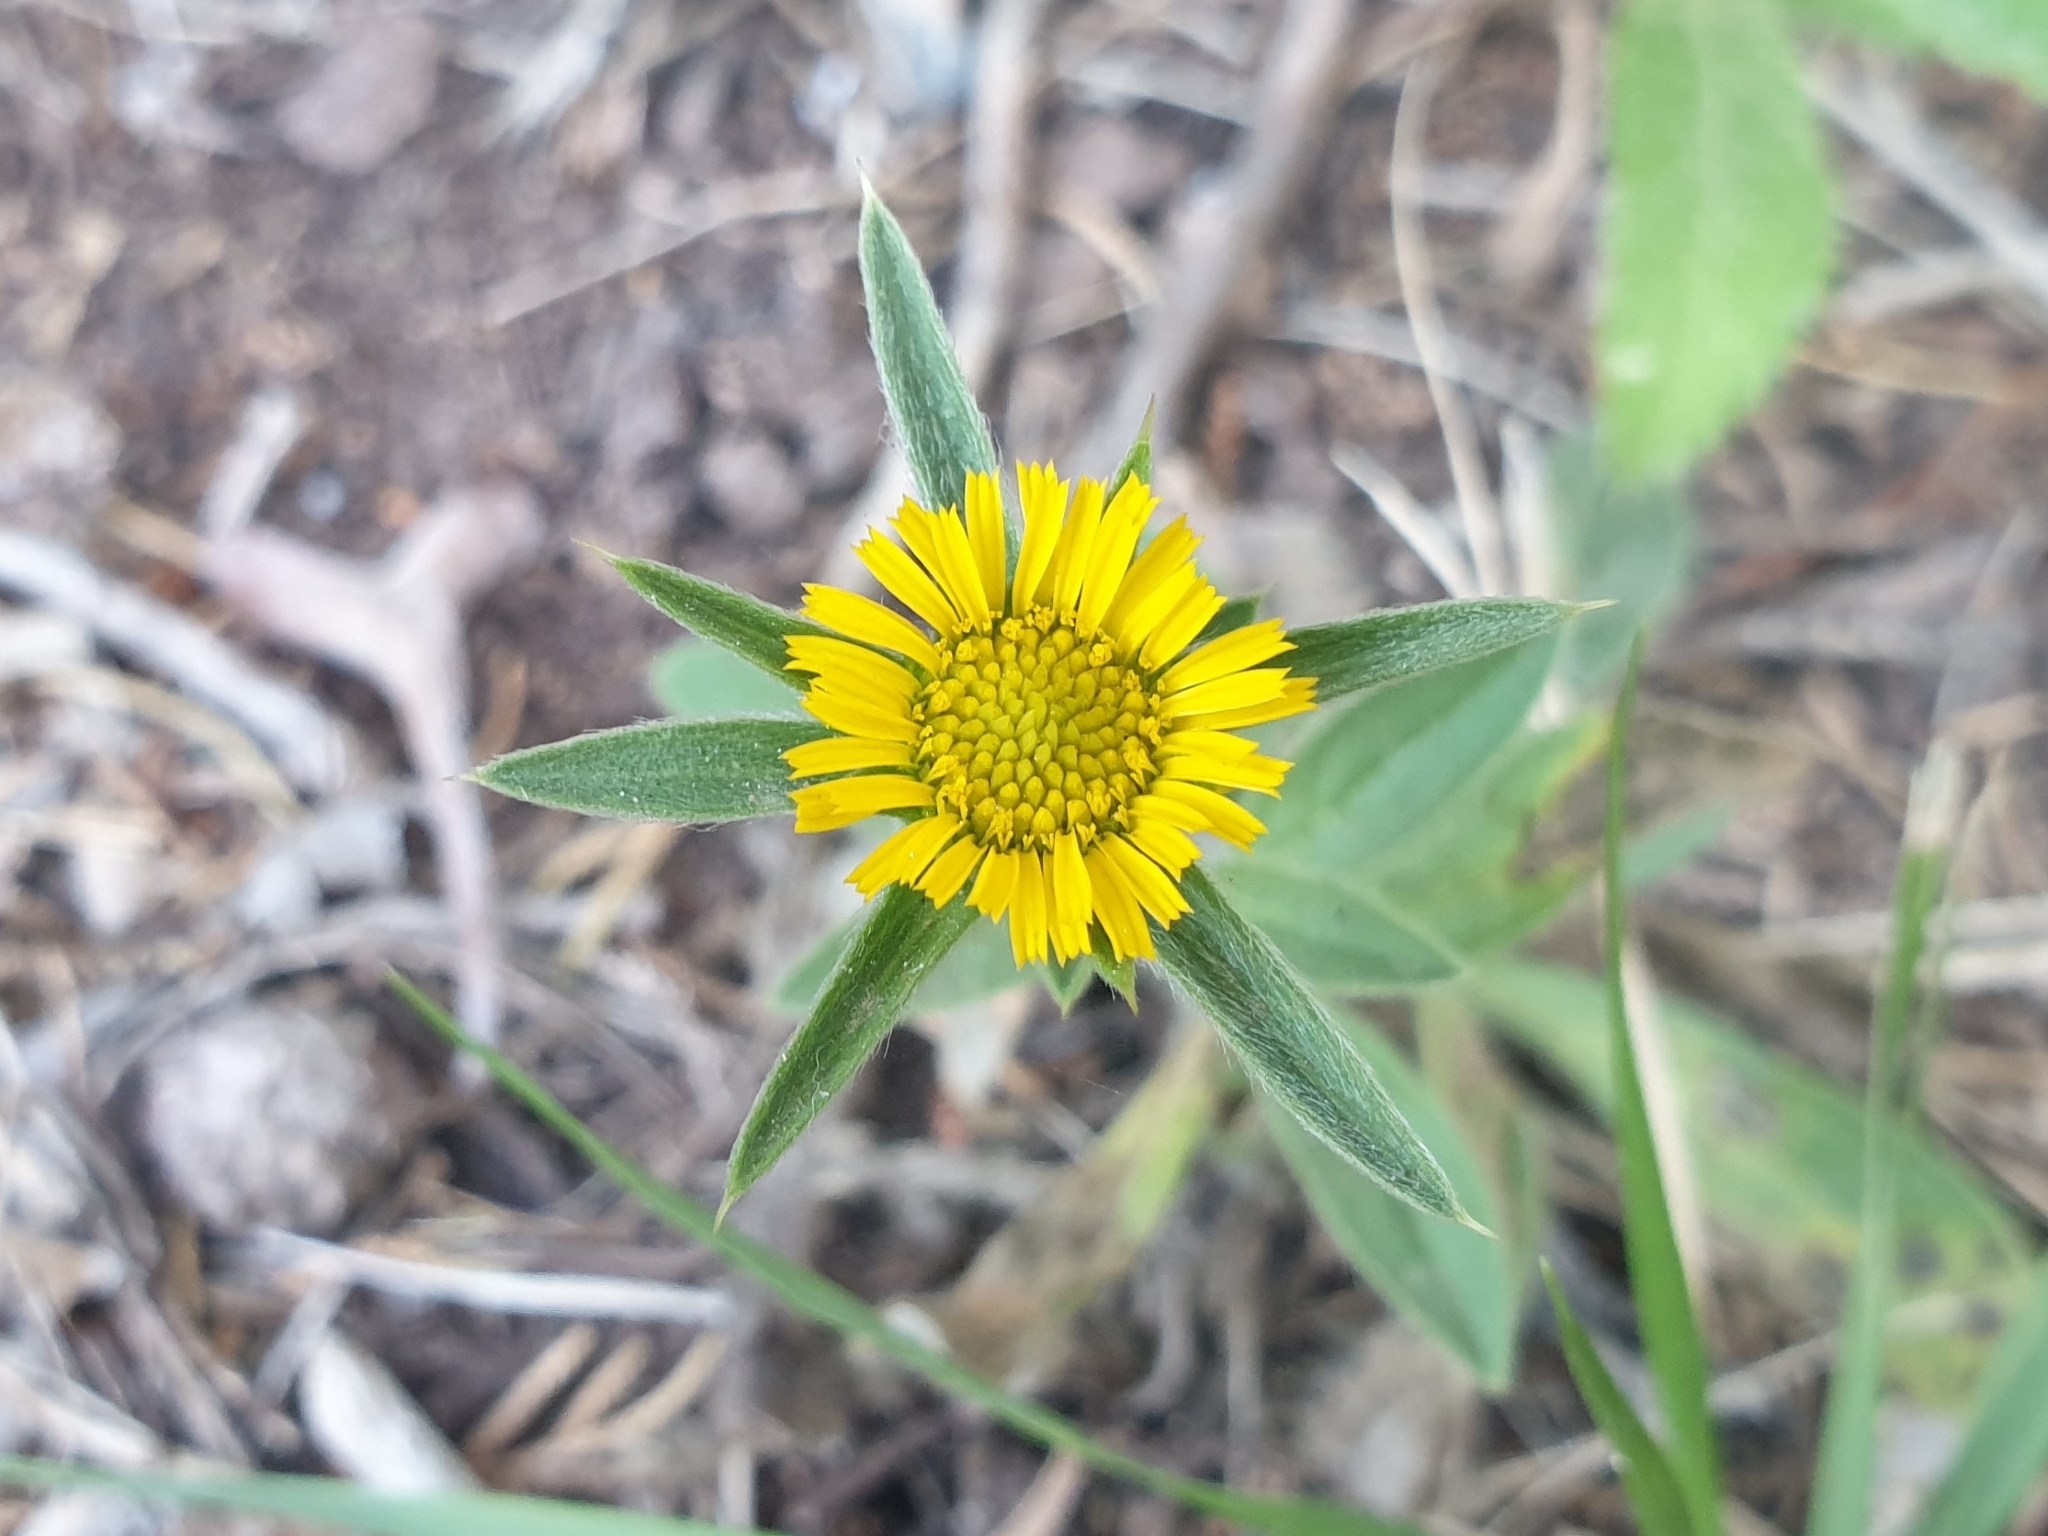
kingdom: Plantae
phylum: Tracheophyta
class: Magnoliopsida
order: Asterales
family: Asteraceae
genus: Pallenis
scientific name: Pallenis spinosa
